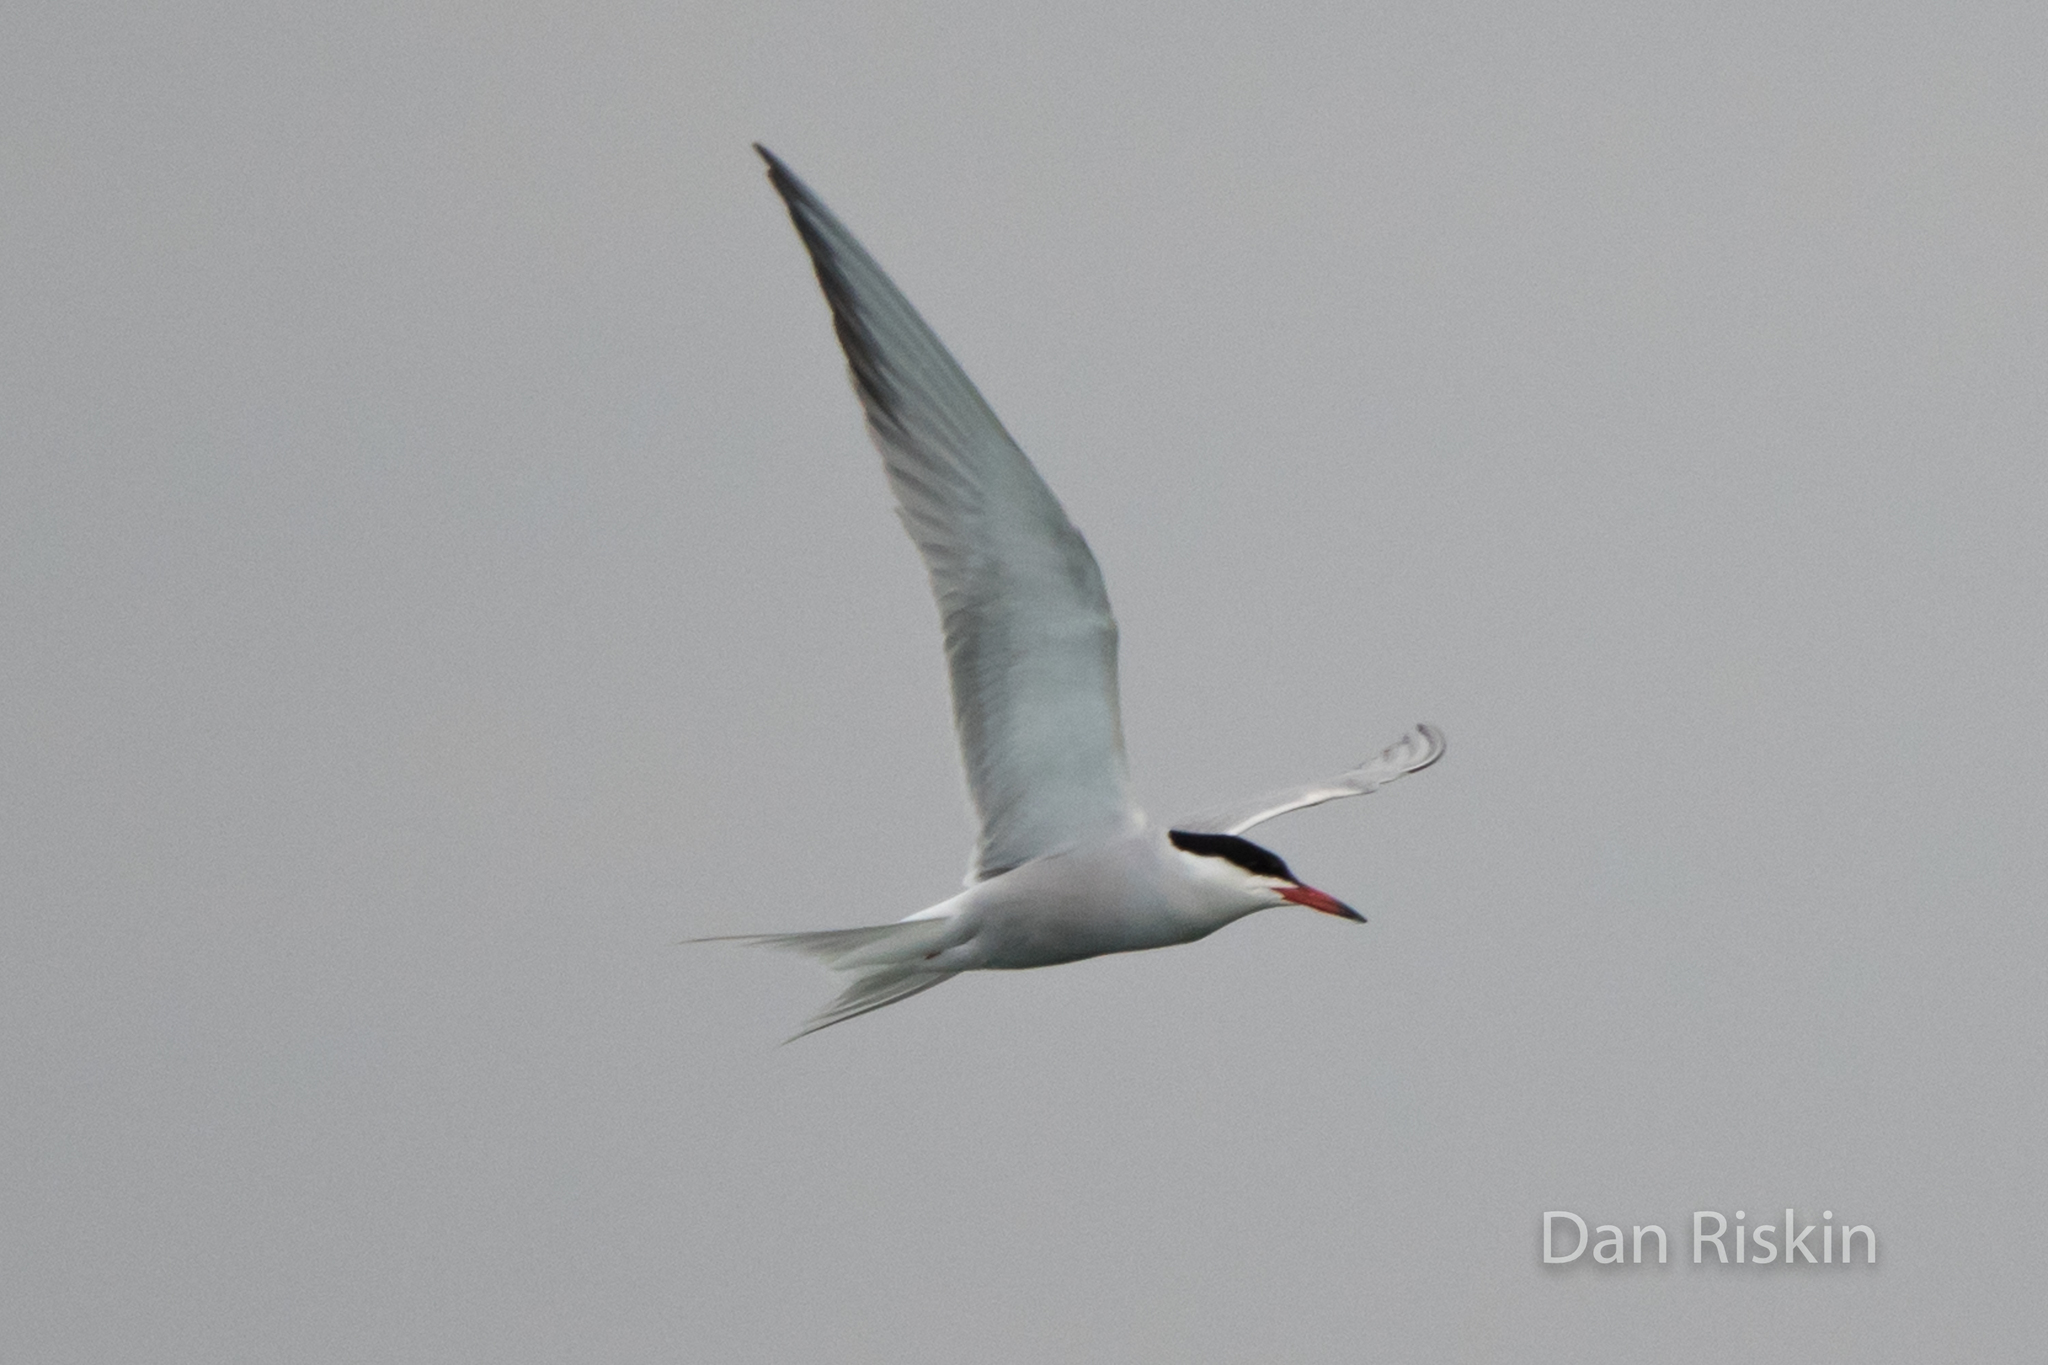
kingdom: Animalia
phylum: Chordata
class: Aves
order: Charadriiformes
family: Laridae
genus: Sterna
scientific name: Sterna hirundo
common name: Common tern
